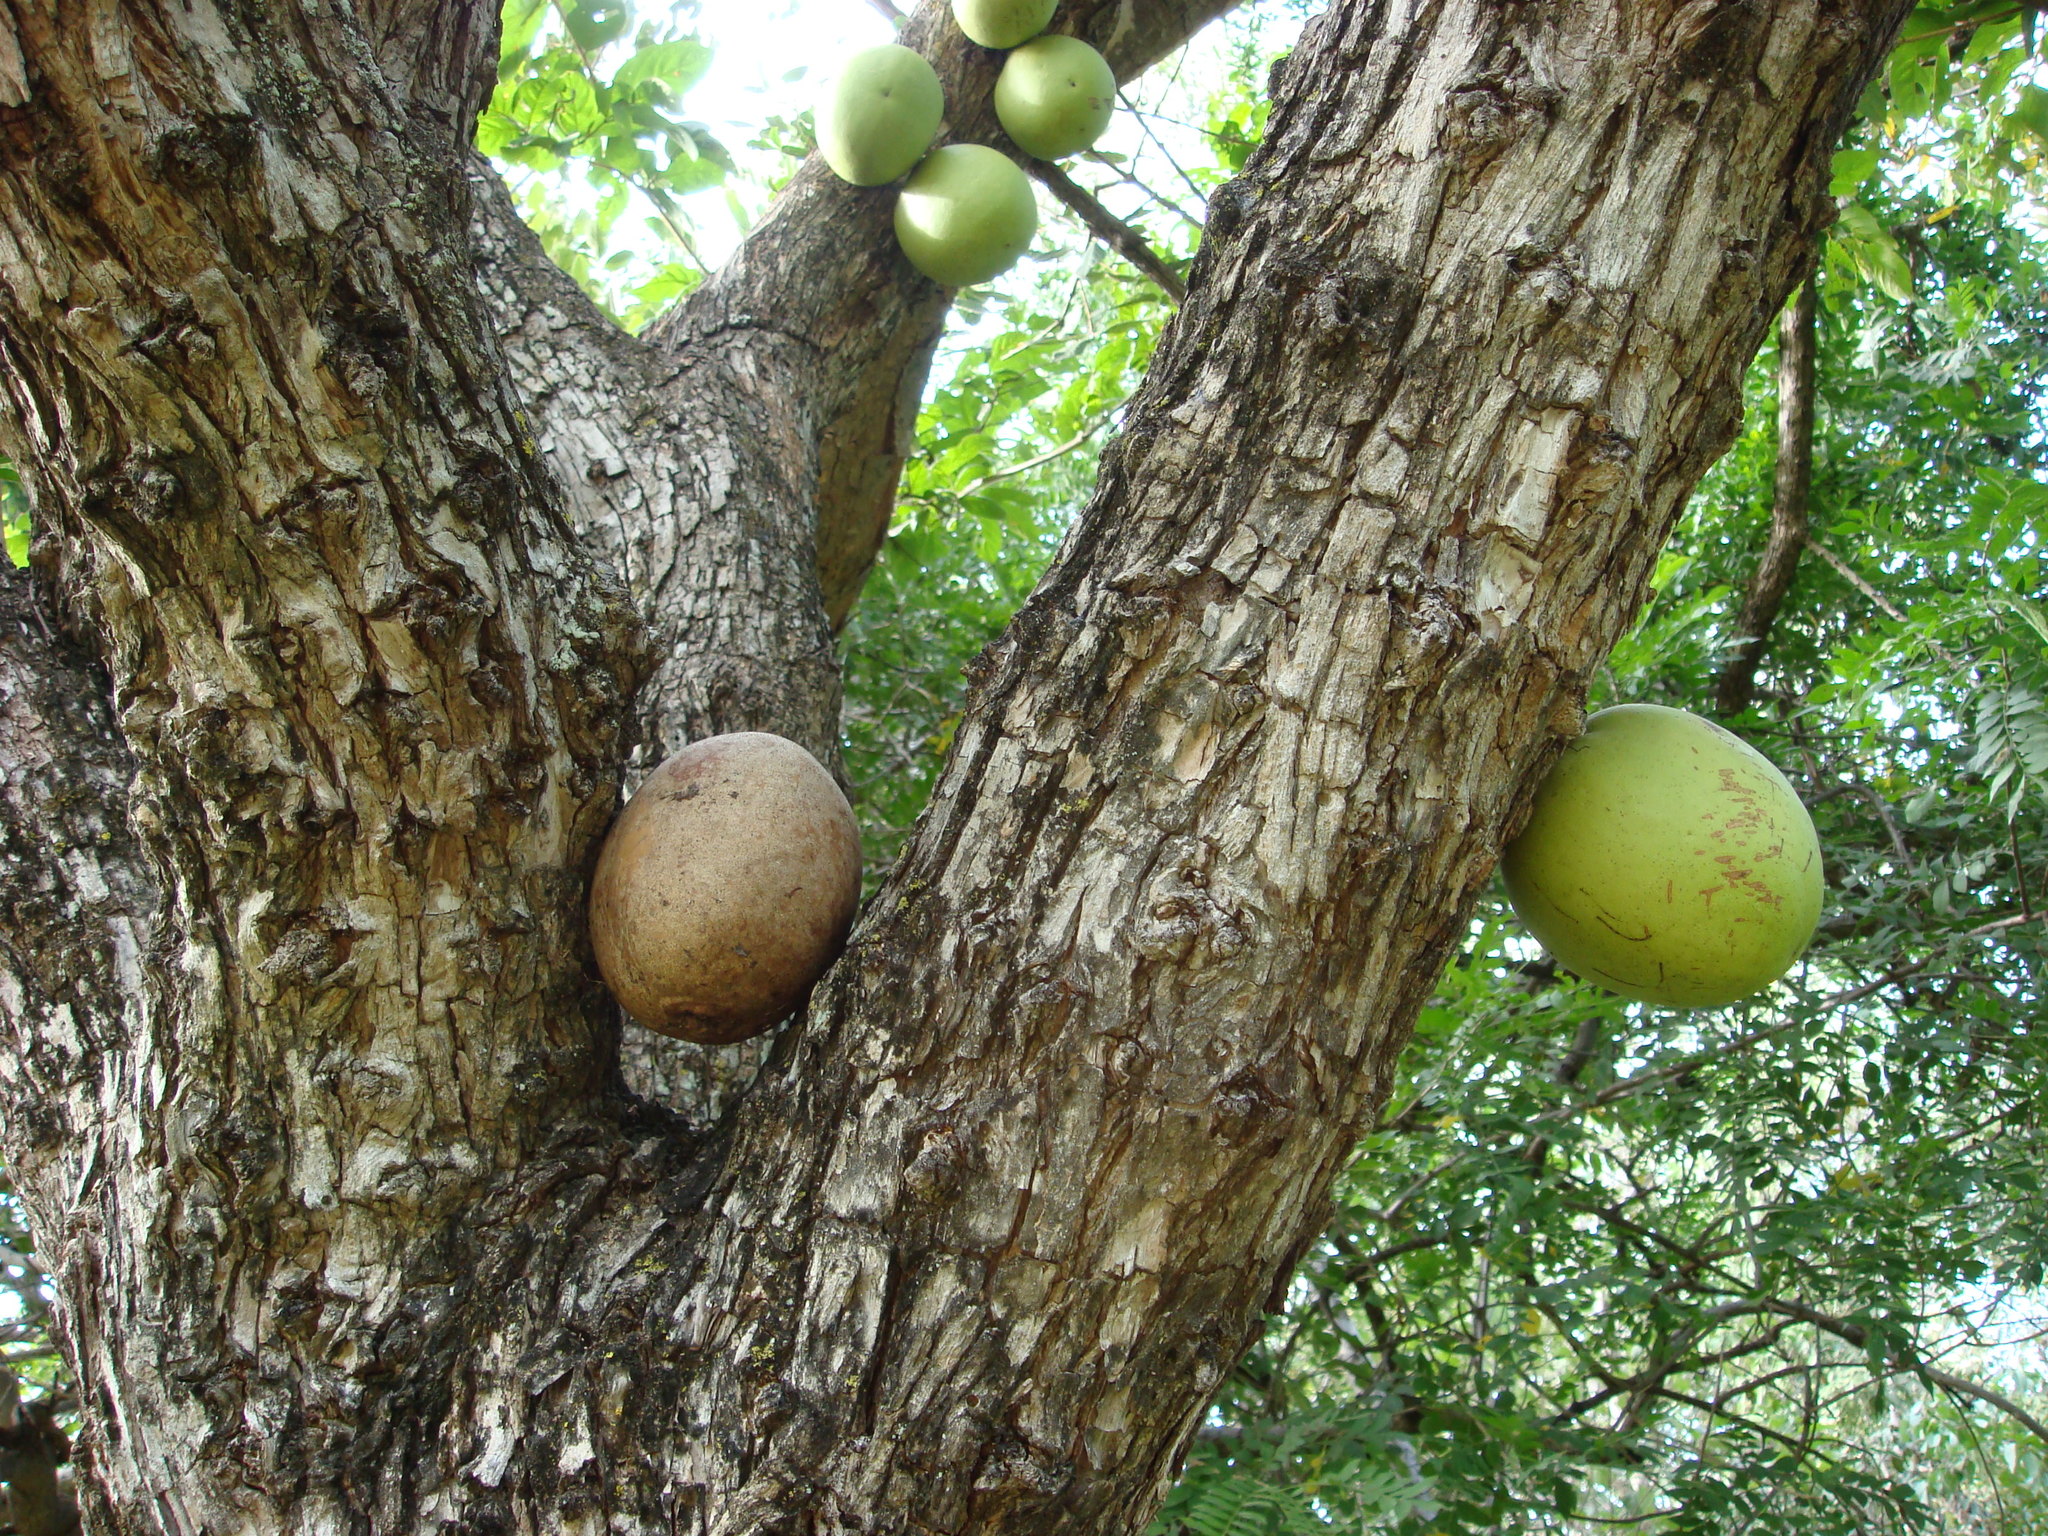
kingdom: Plantae
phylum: Tracheophyta
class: Magnoliopsida
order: Lamiales
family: Bignoniaceae
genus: Crescentia
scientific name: Crescentia alata
